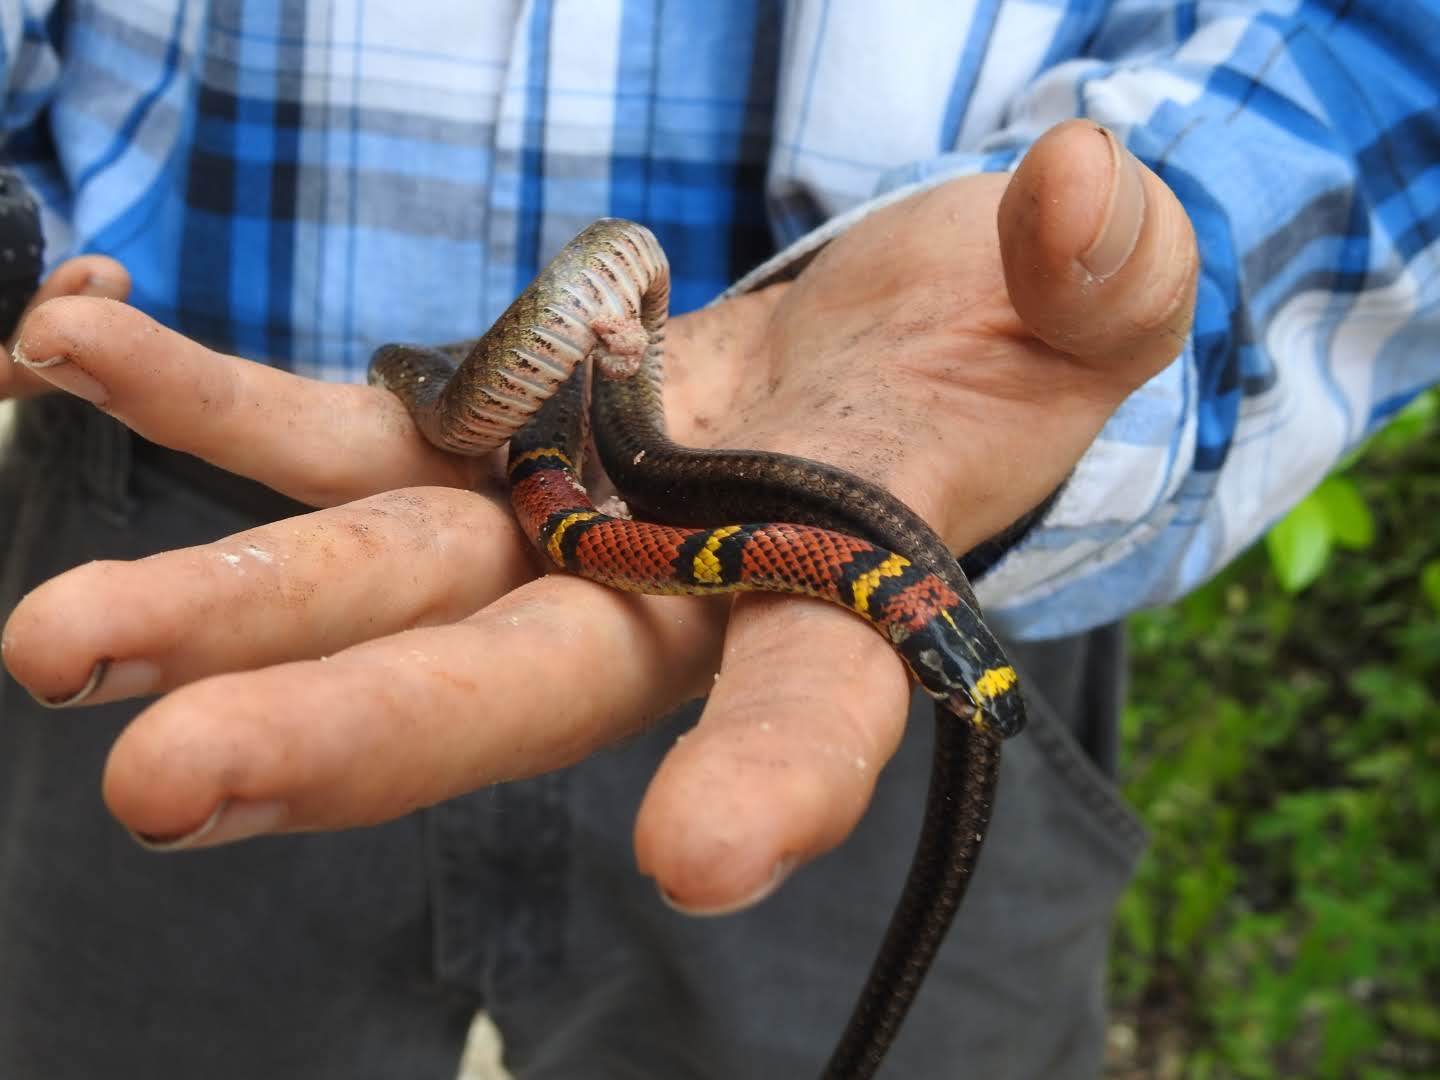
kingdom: Animalia
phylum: Chordata
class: Squamata
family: Colubridae
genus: Scaphiodontophis
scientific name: Scaphiodontophis annulatus
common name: Guatemala neckband snake
